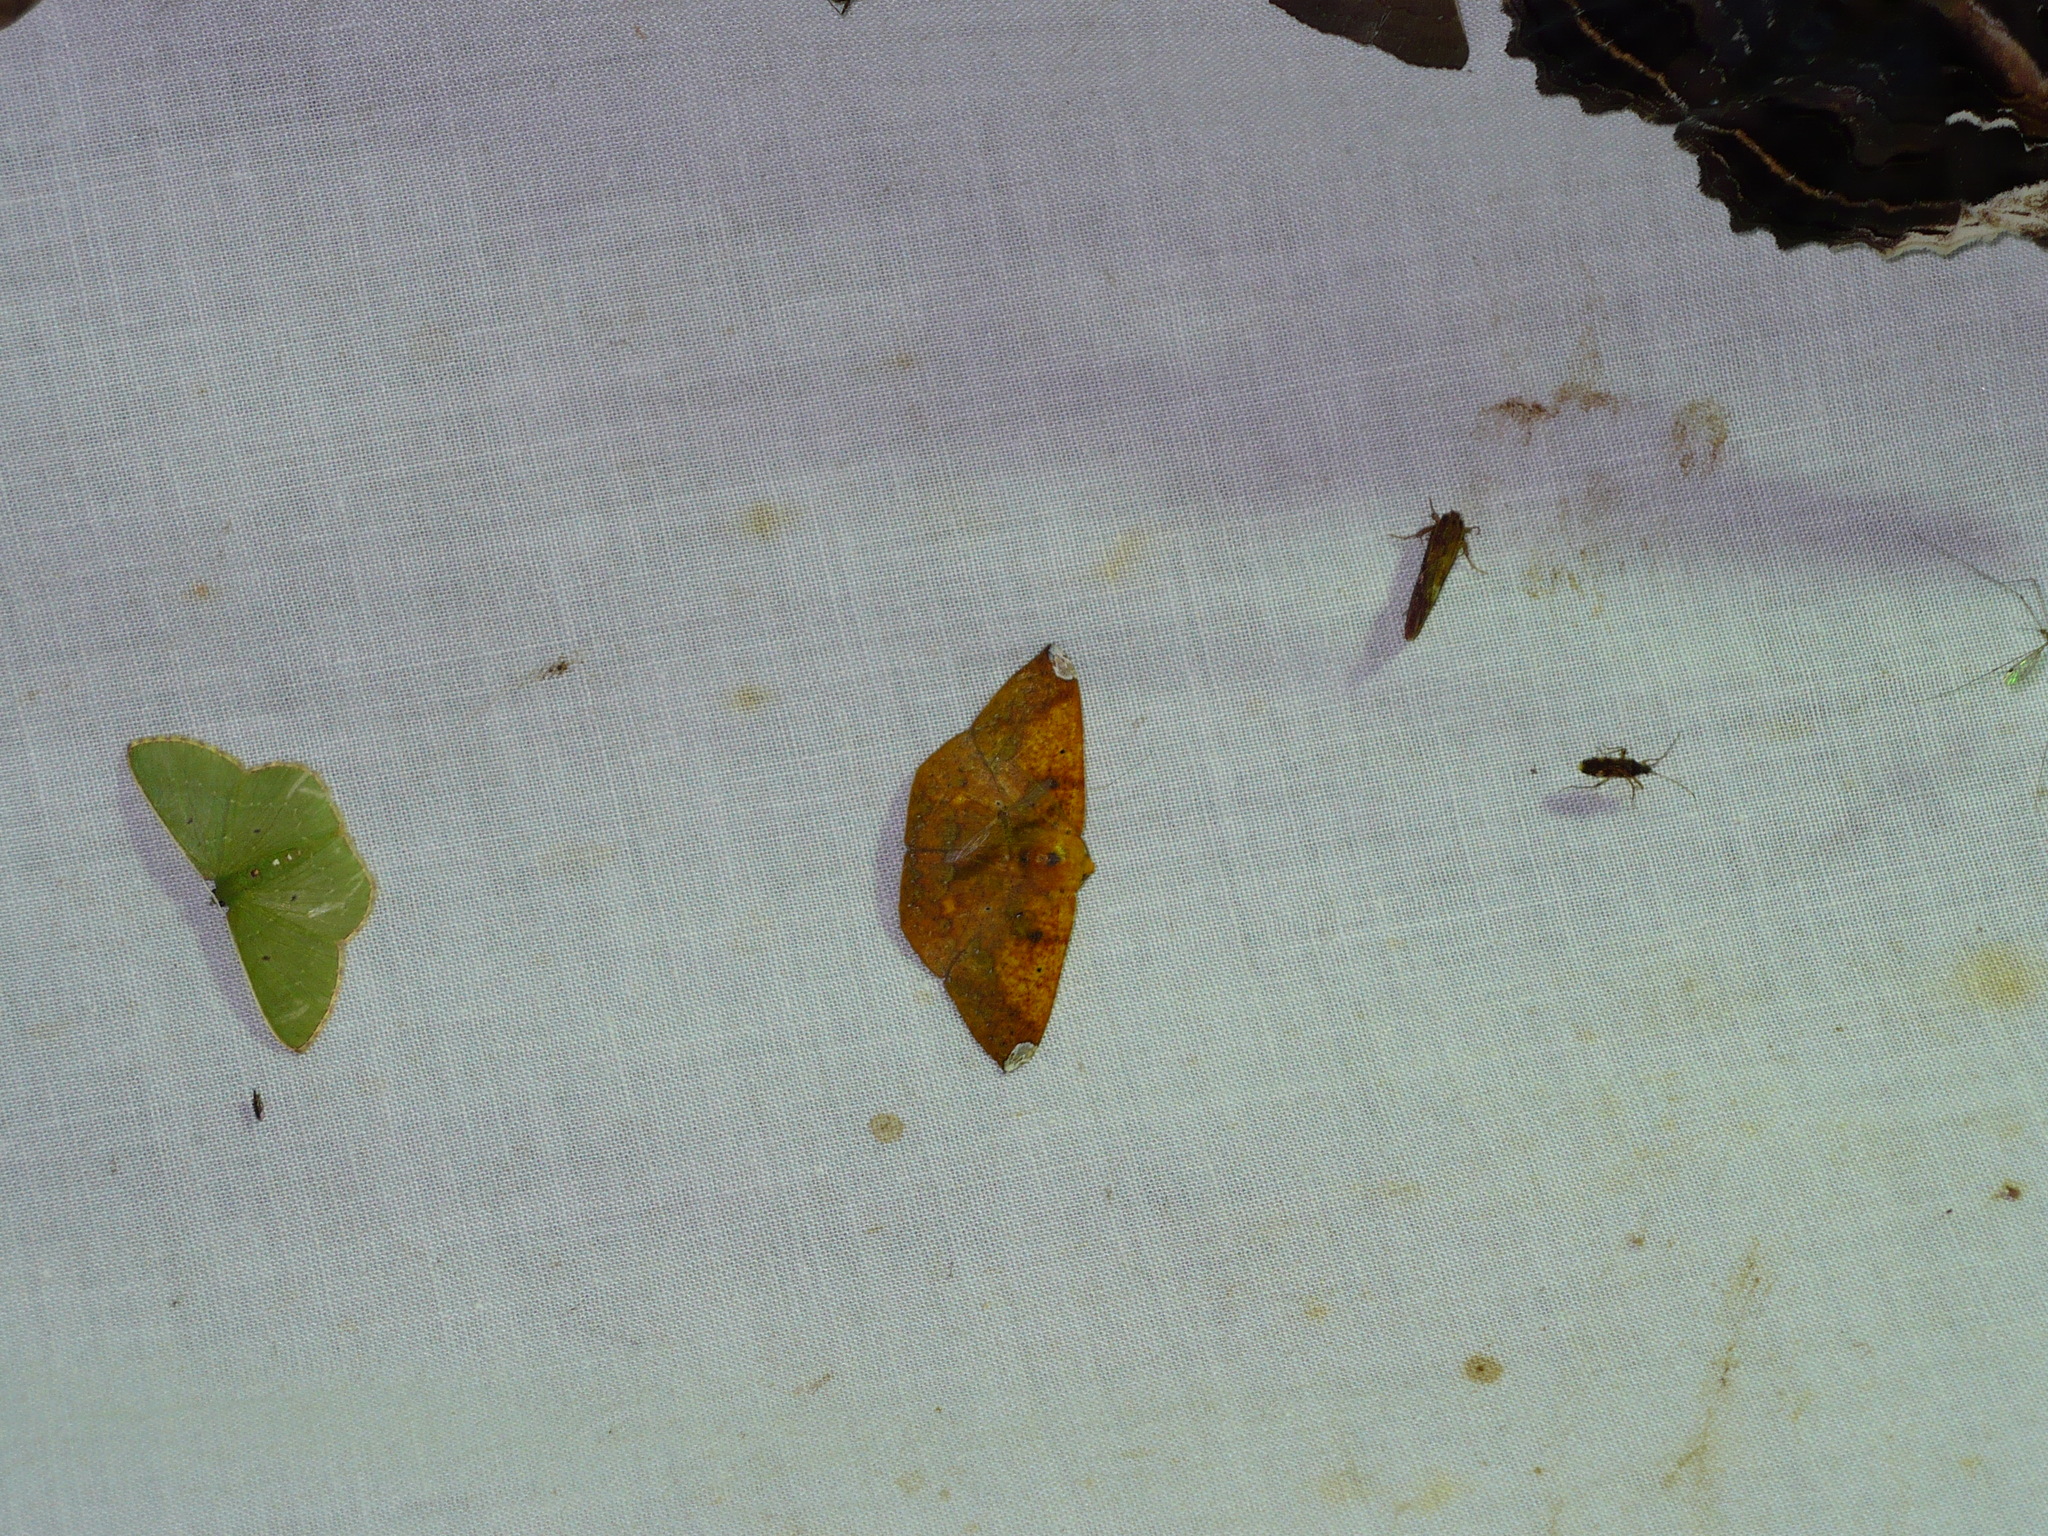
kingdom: Animalia
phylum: Arthropoda
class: Insecta
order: Lepidoptera
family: Geometridae
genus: Acrosemia
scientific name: Acrosemia vulpecularia
